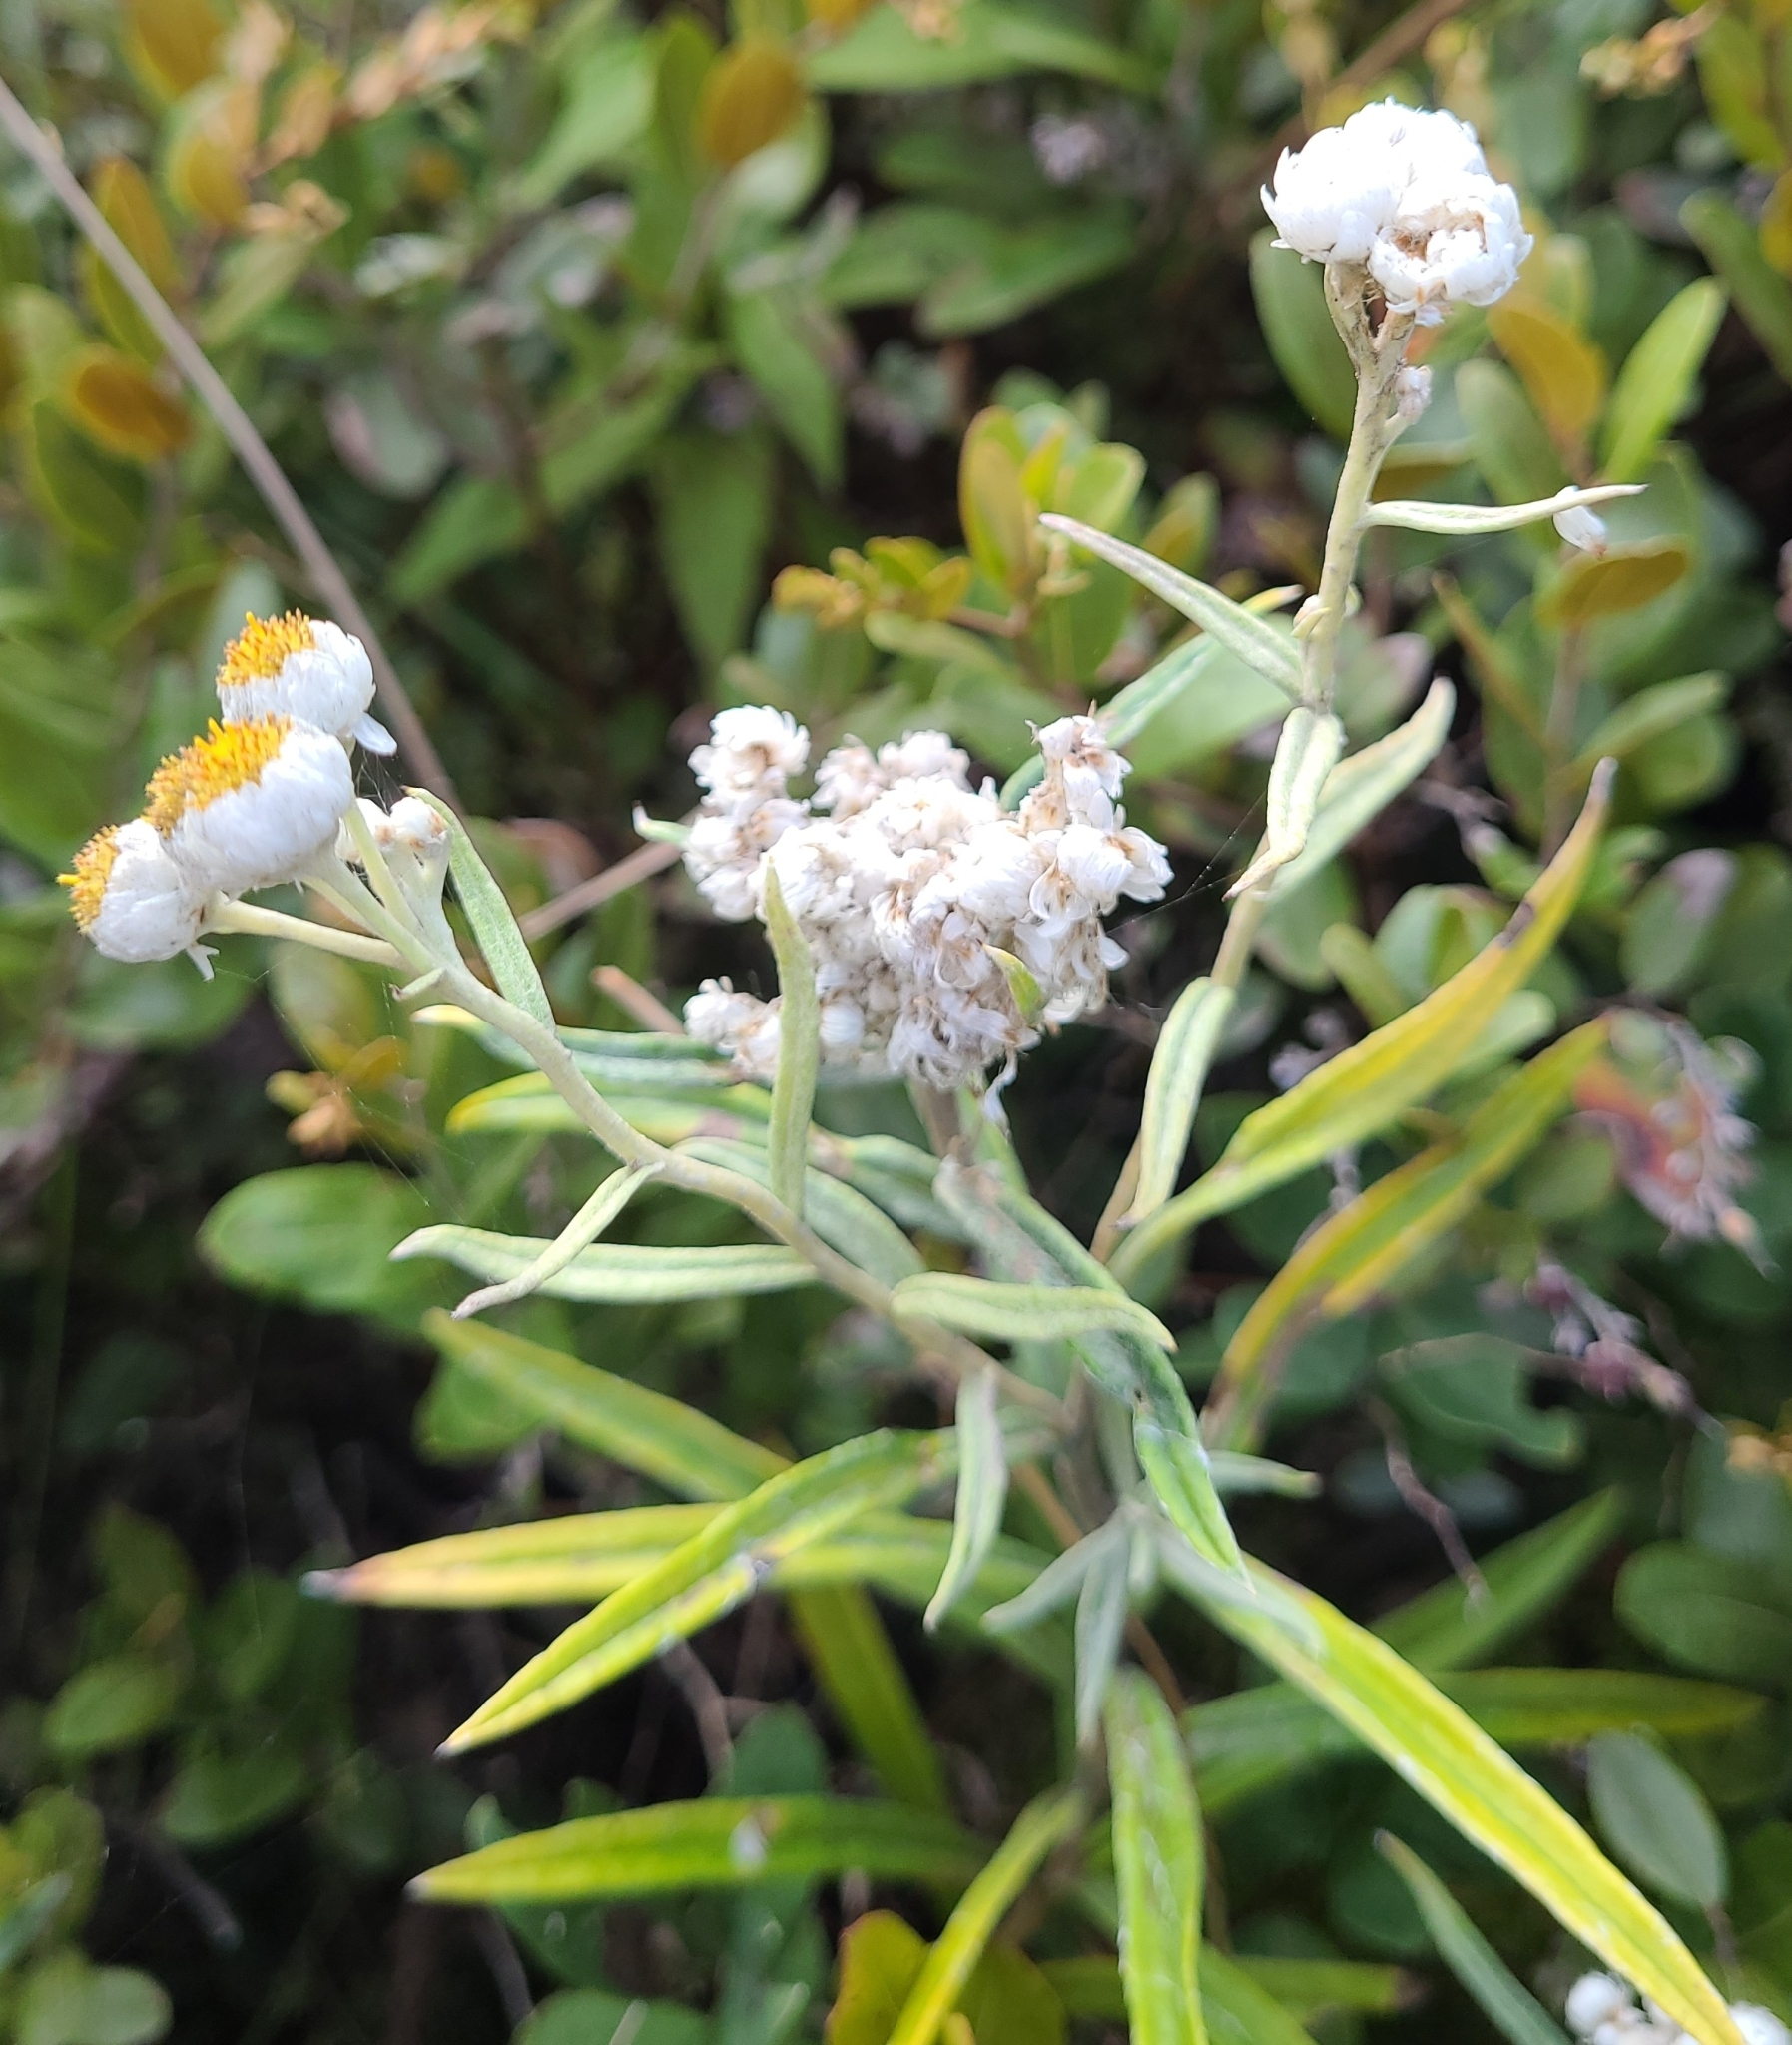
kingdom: Plantae
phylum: Tracheophyta
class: Magnoliopsida
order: Asterales
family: Asteraceae
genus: Anaphalis
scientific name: Anaphalis margaritacea
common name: Pearly everlasting
